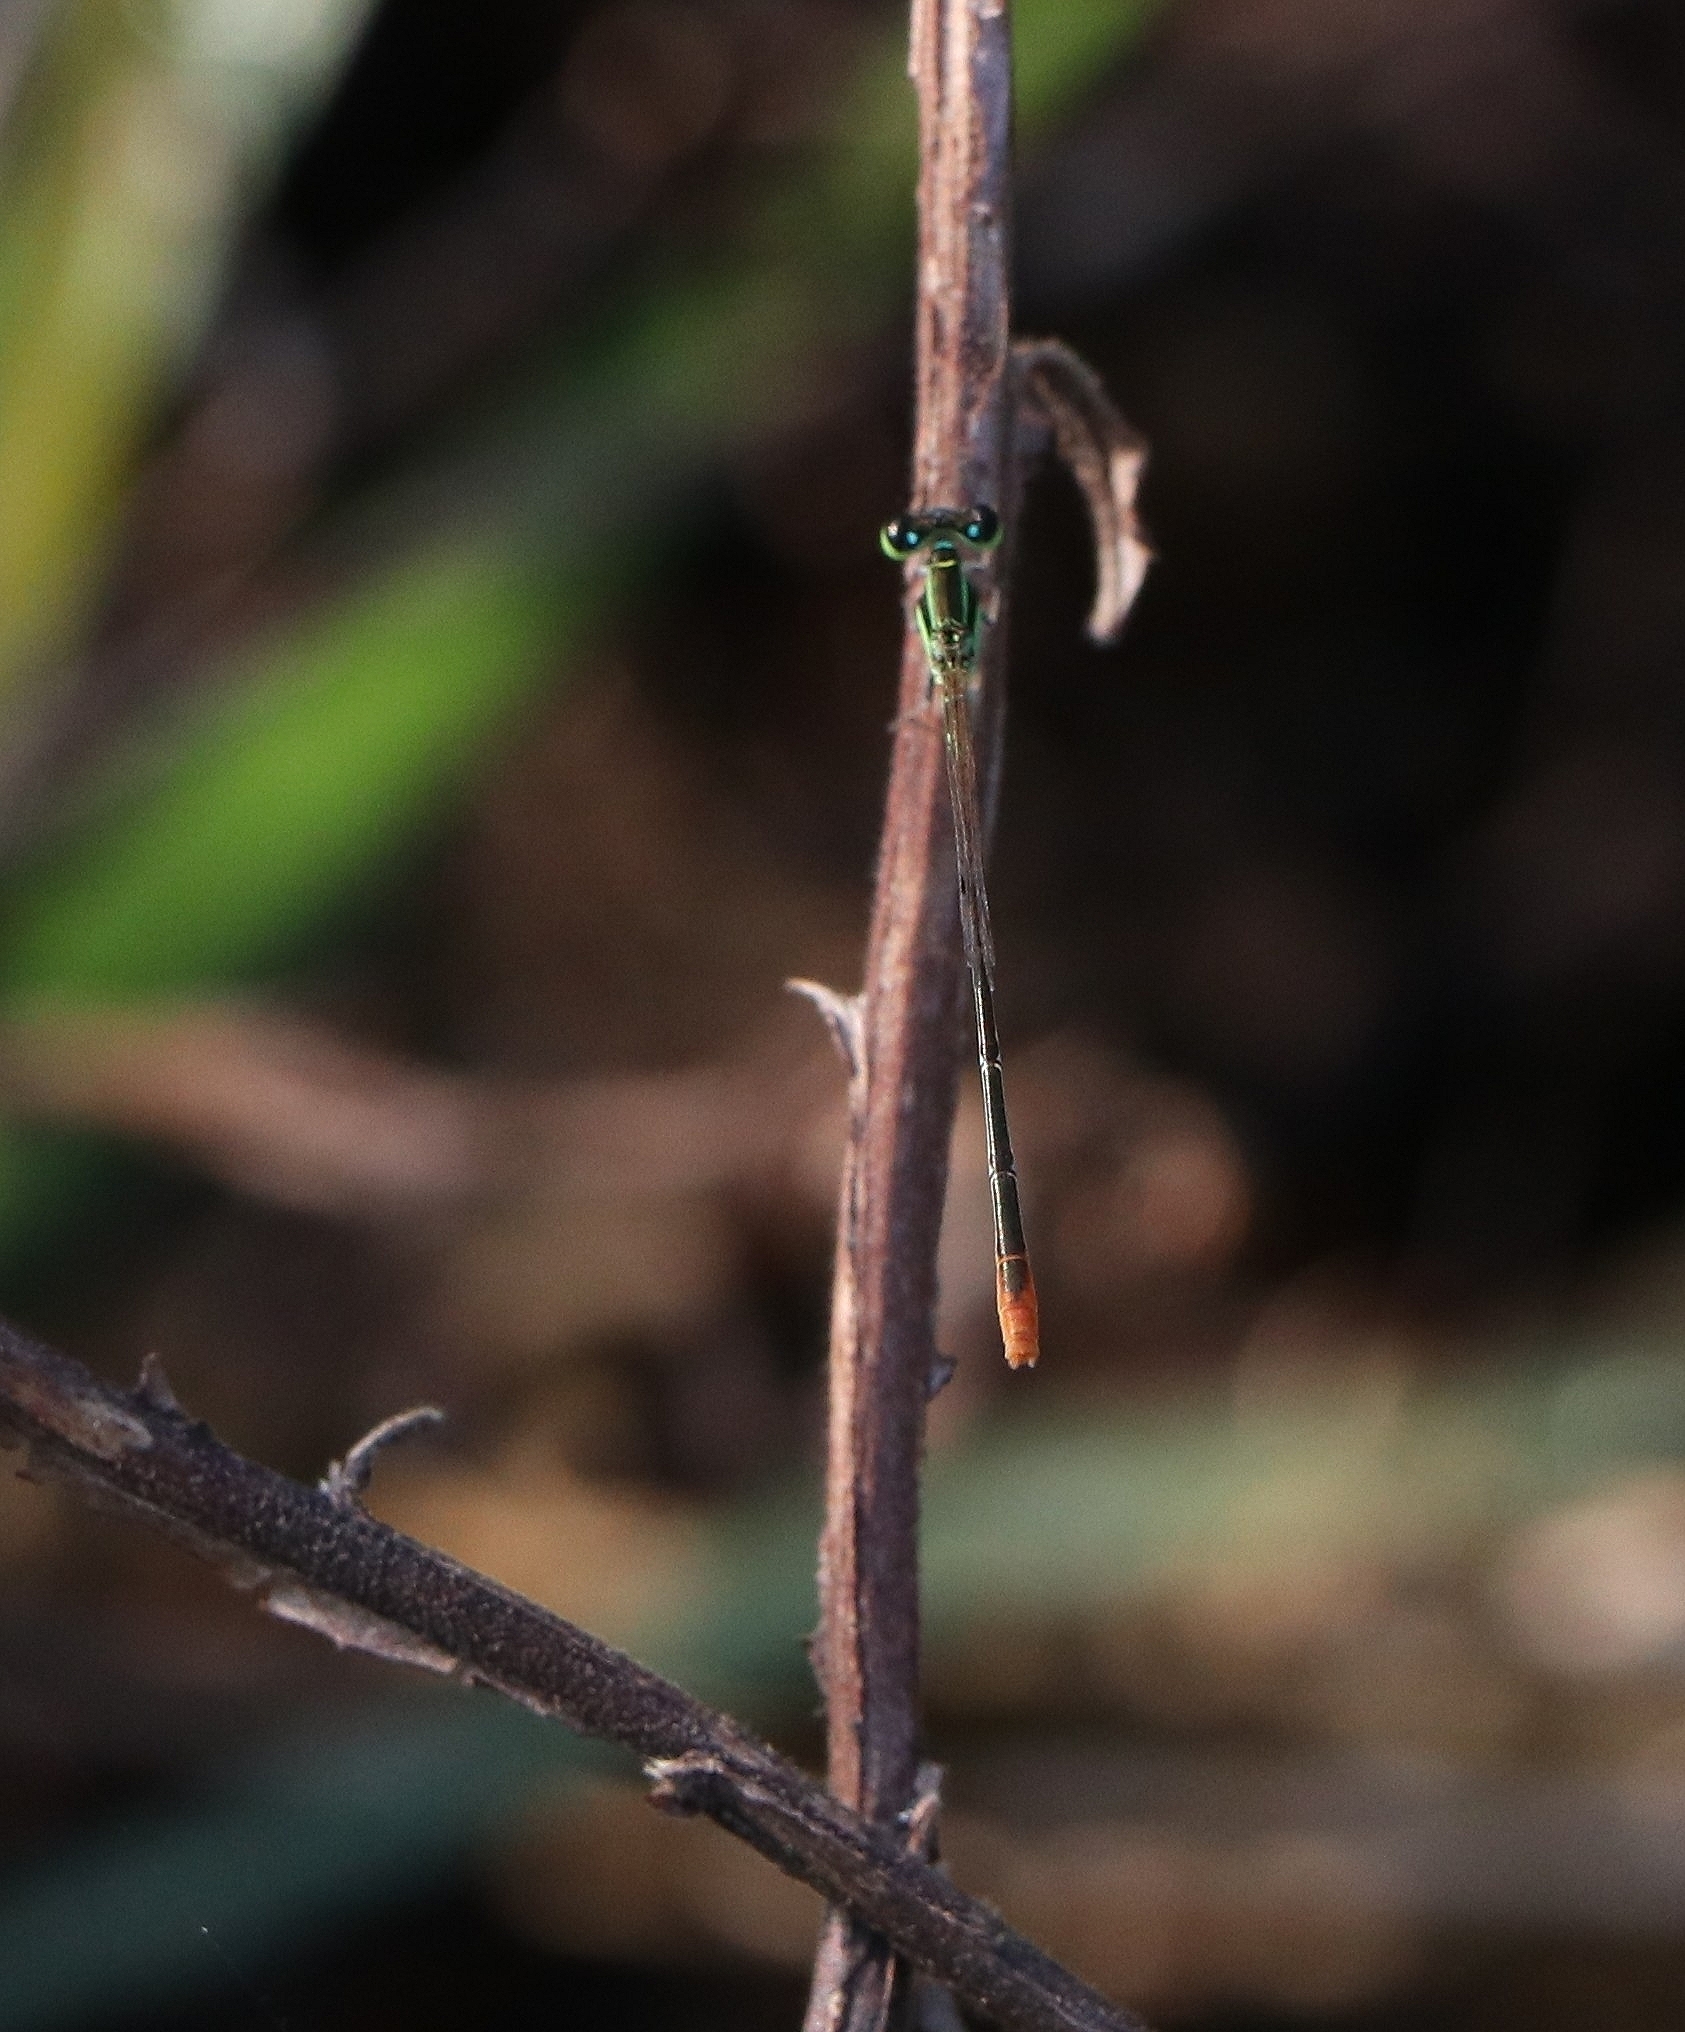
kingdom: Animalia
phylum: Arthropoda
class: Insecta
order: Odonata
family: Coenagrionidae
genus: Agriocnemis
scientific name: Agriocnemis pygmaea
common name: Pygmy wisp
